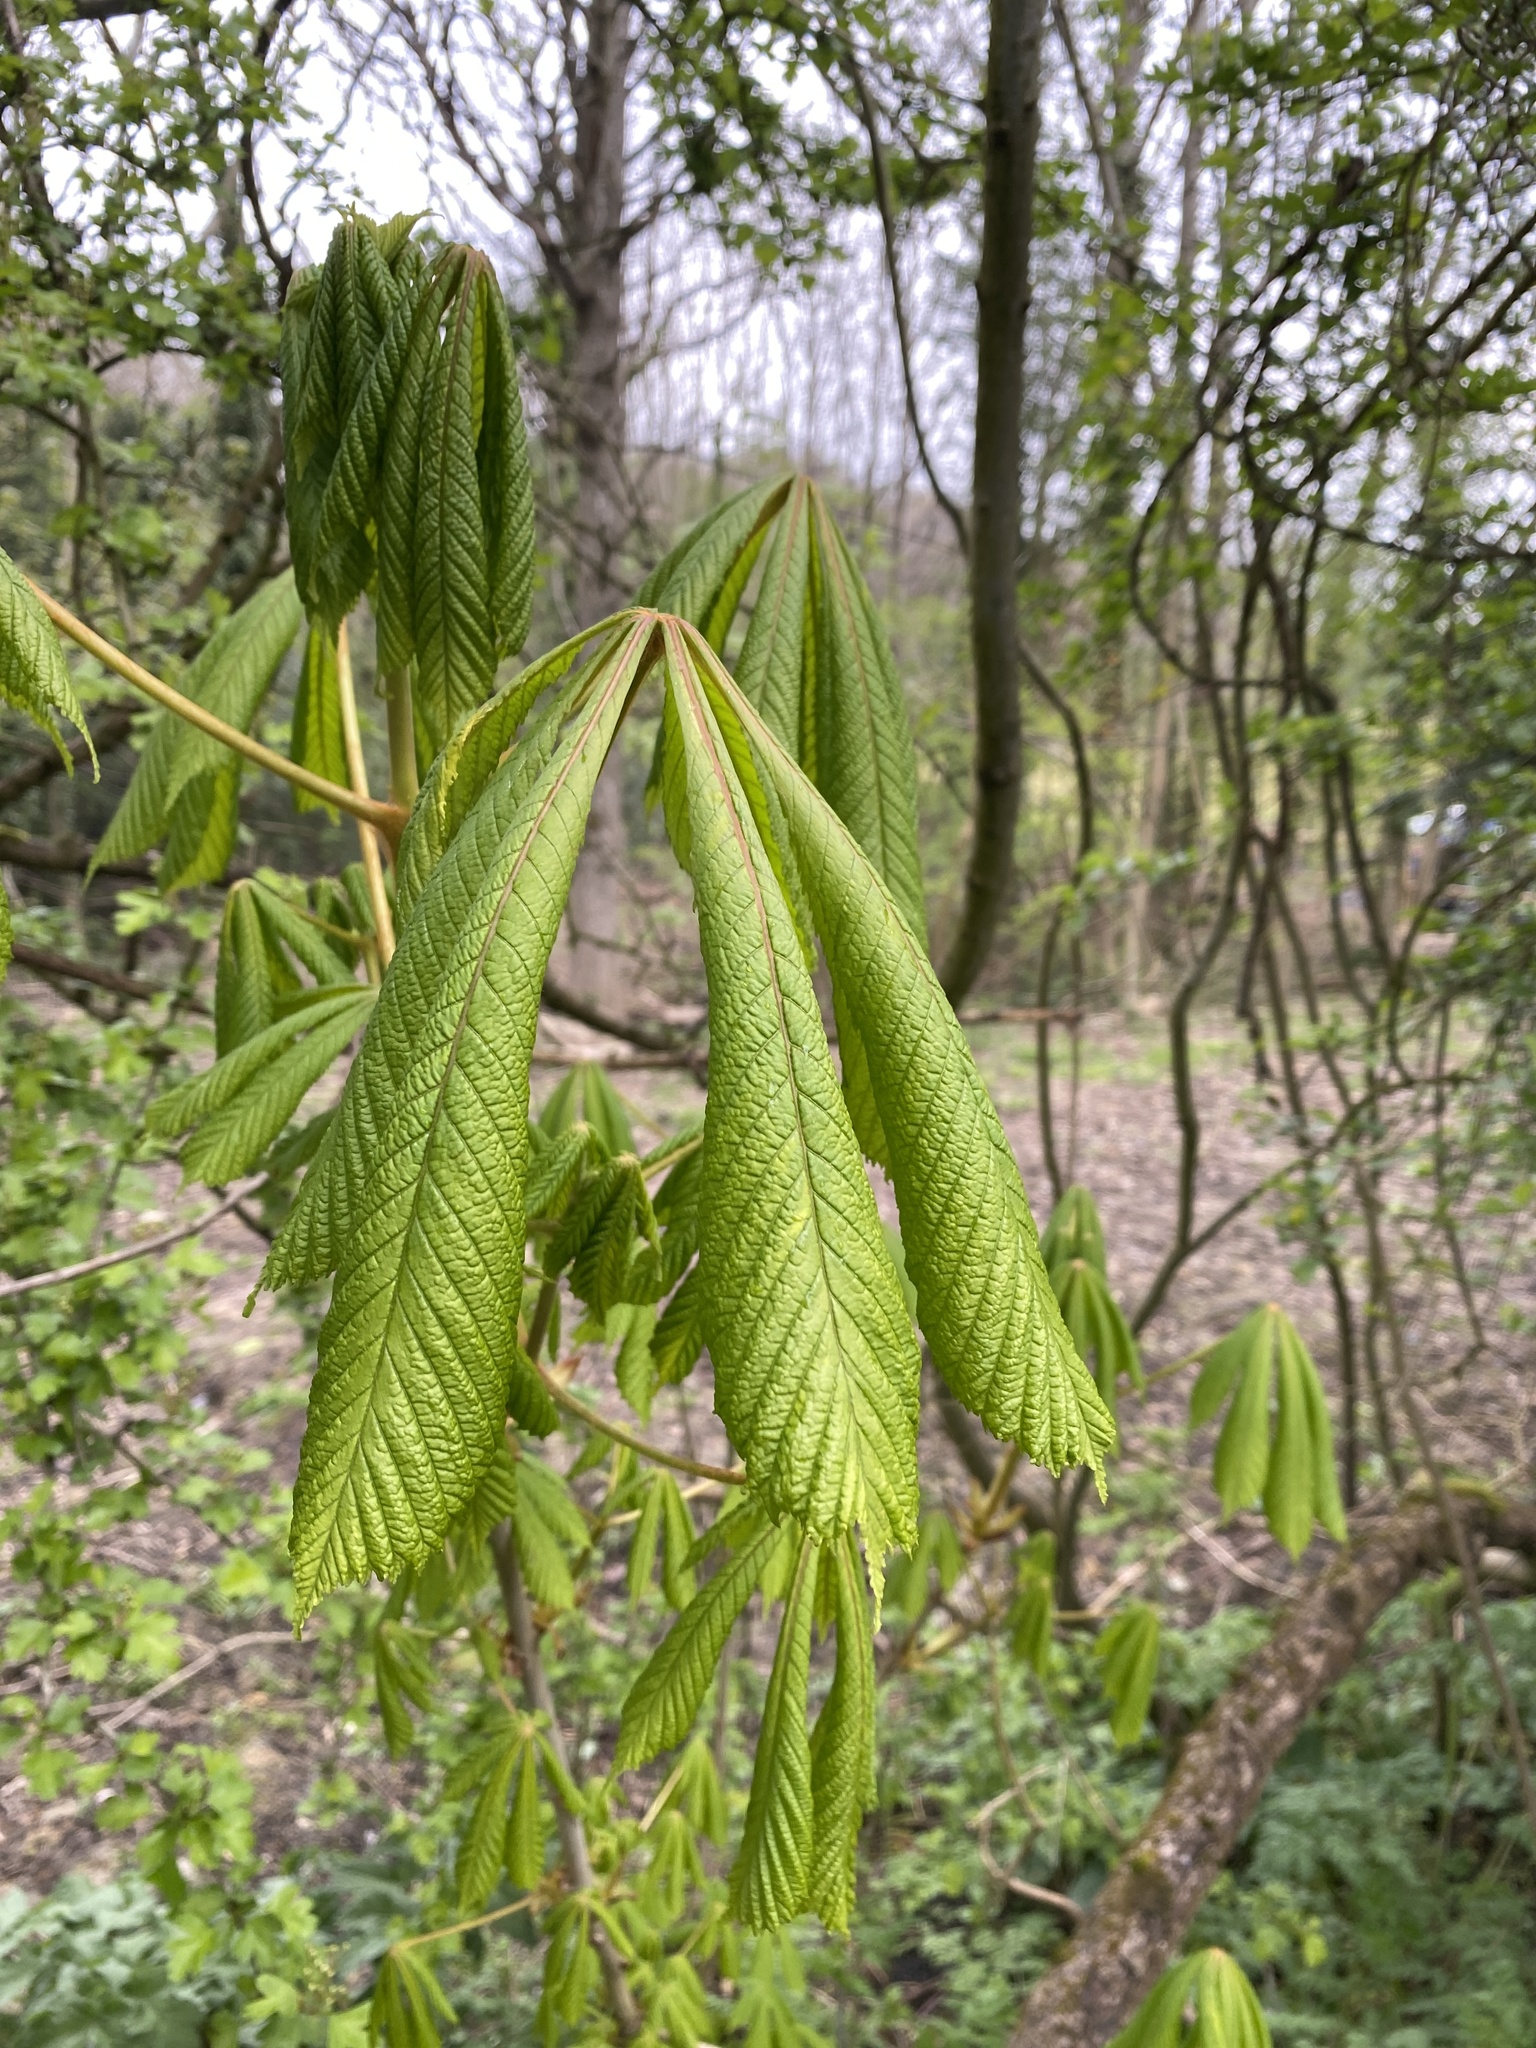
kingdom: Plantae
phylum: Tracheophyta
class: Magnoliopsida
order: Sapindales
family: Sapindaceae
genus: Aesculus
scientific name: Aesculus hippocastanum
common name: Horse-chestnut
